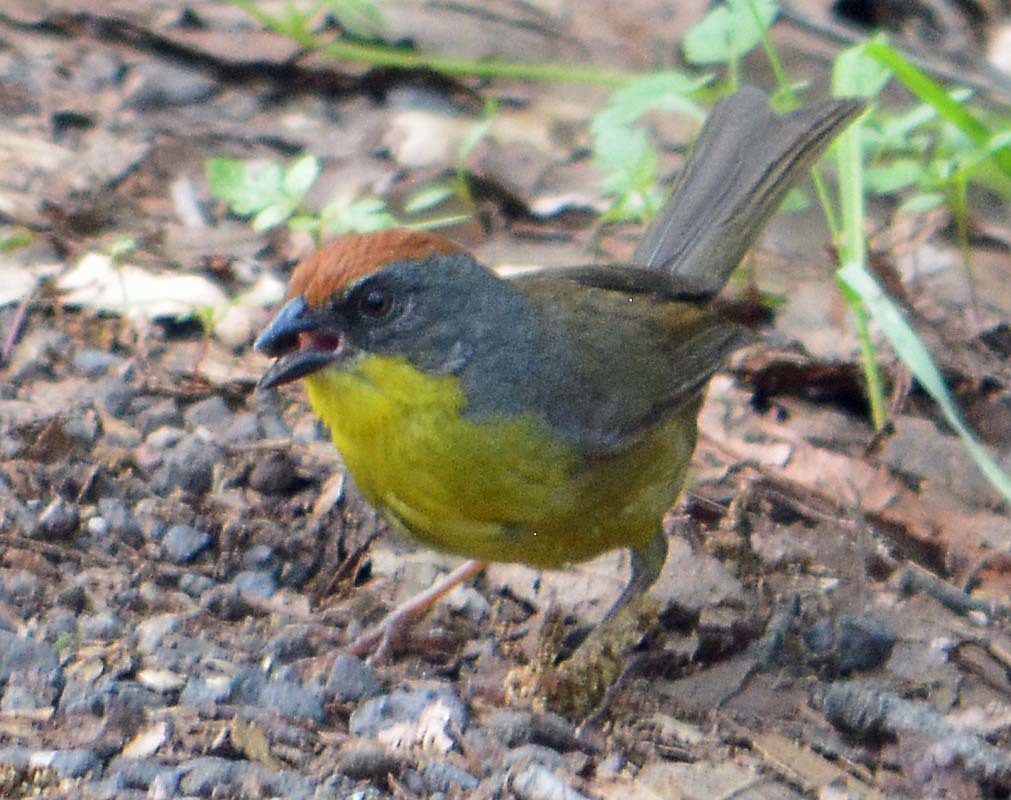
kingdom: Animalia
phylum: Chordata
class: Aves
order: Passeriformes
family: Passerellidae
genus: Atlapetes
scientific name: Atlapetes pileatus
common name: Rufous-capped brush-finch
